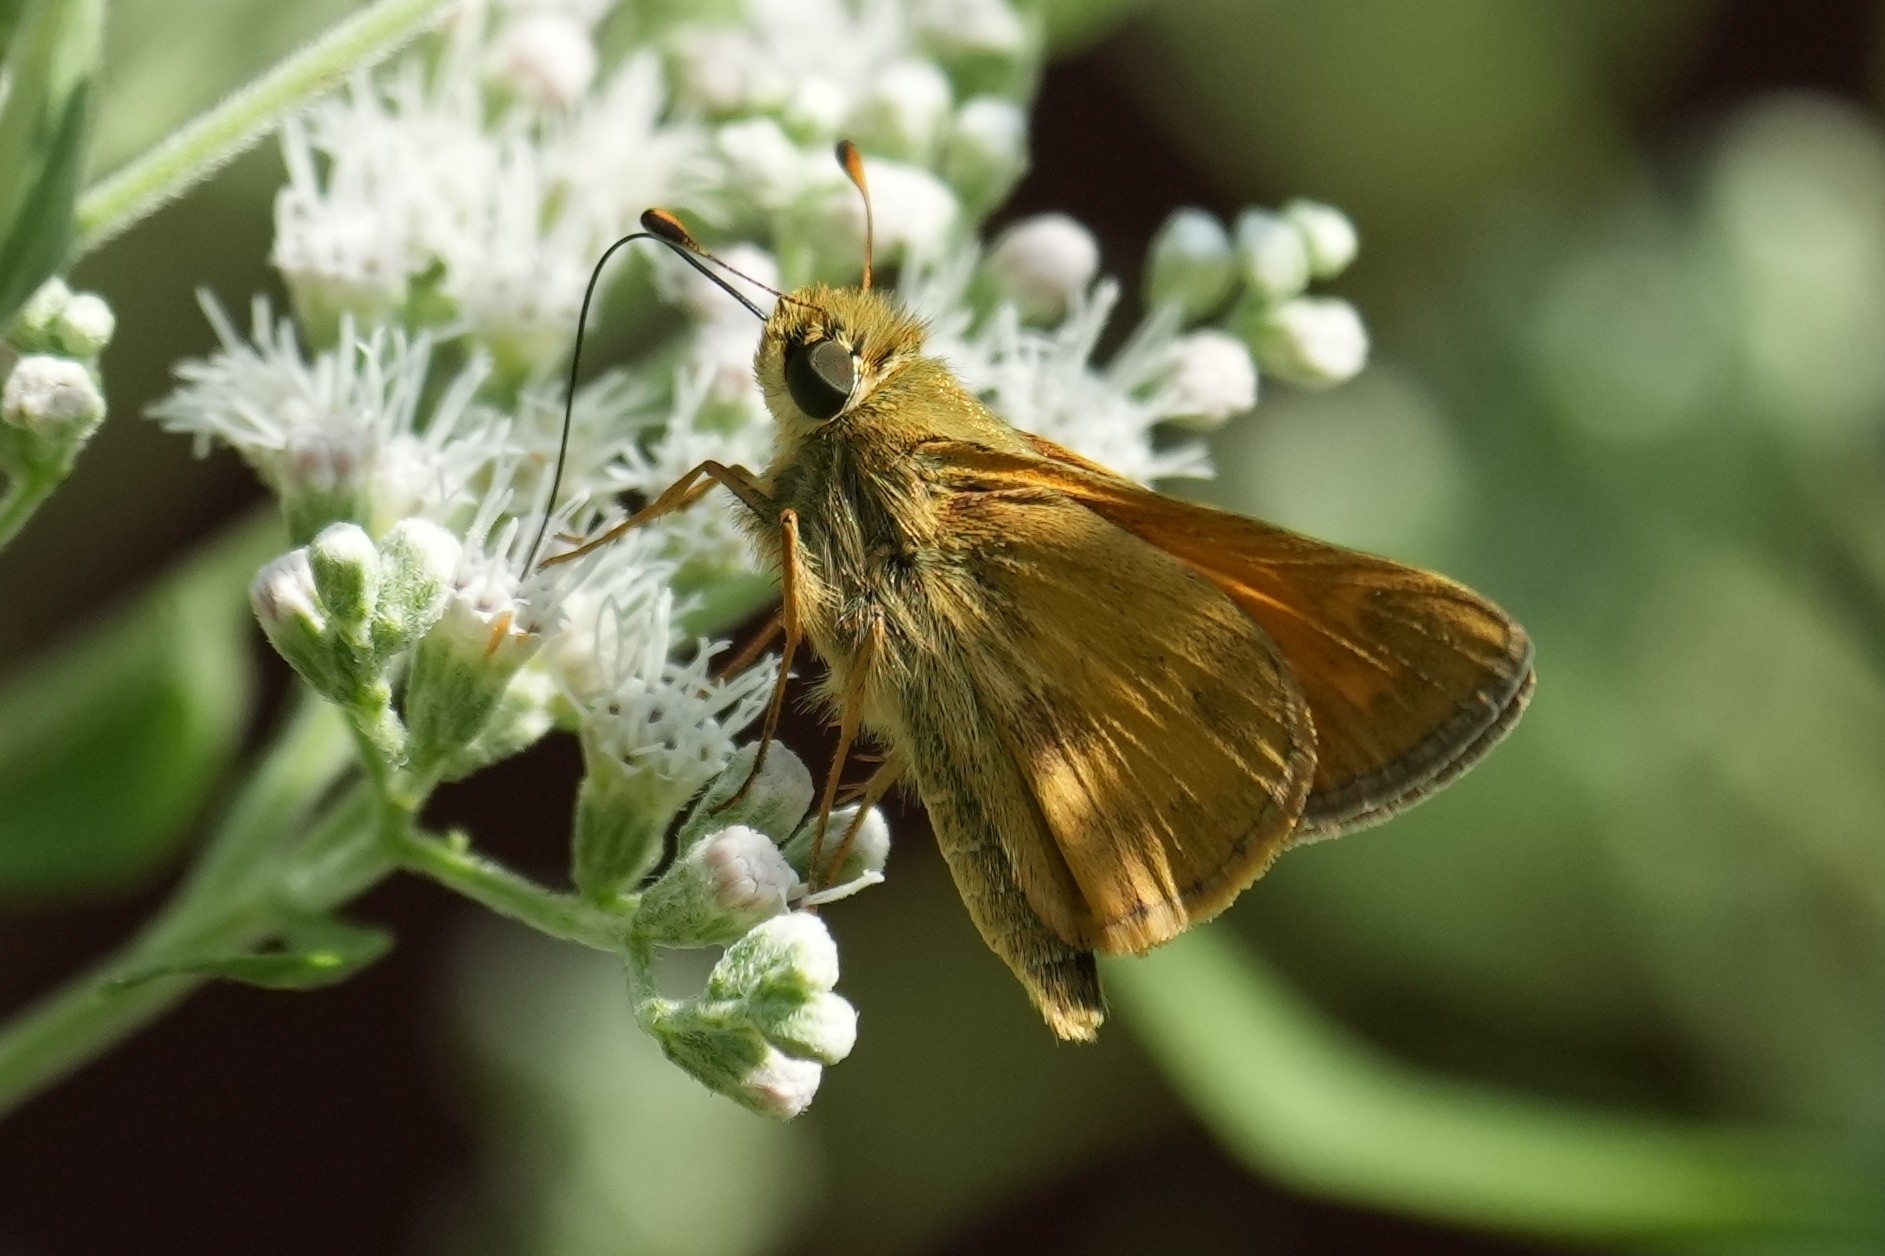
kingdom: Animalia
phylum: Arthropoda
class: Insecta
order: Lepidoptera
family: Hesperiidae
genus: Atalopedes
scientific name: Atalopedes
